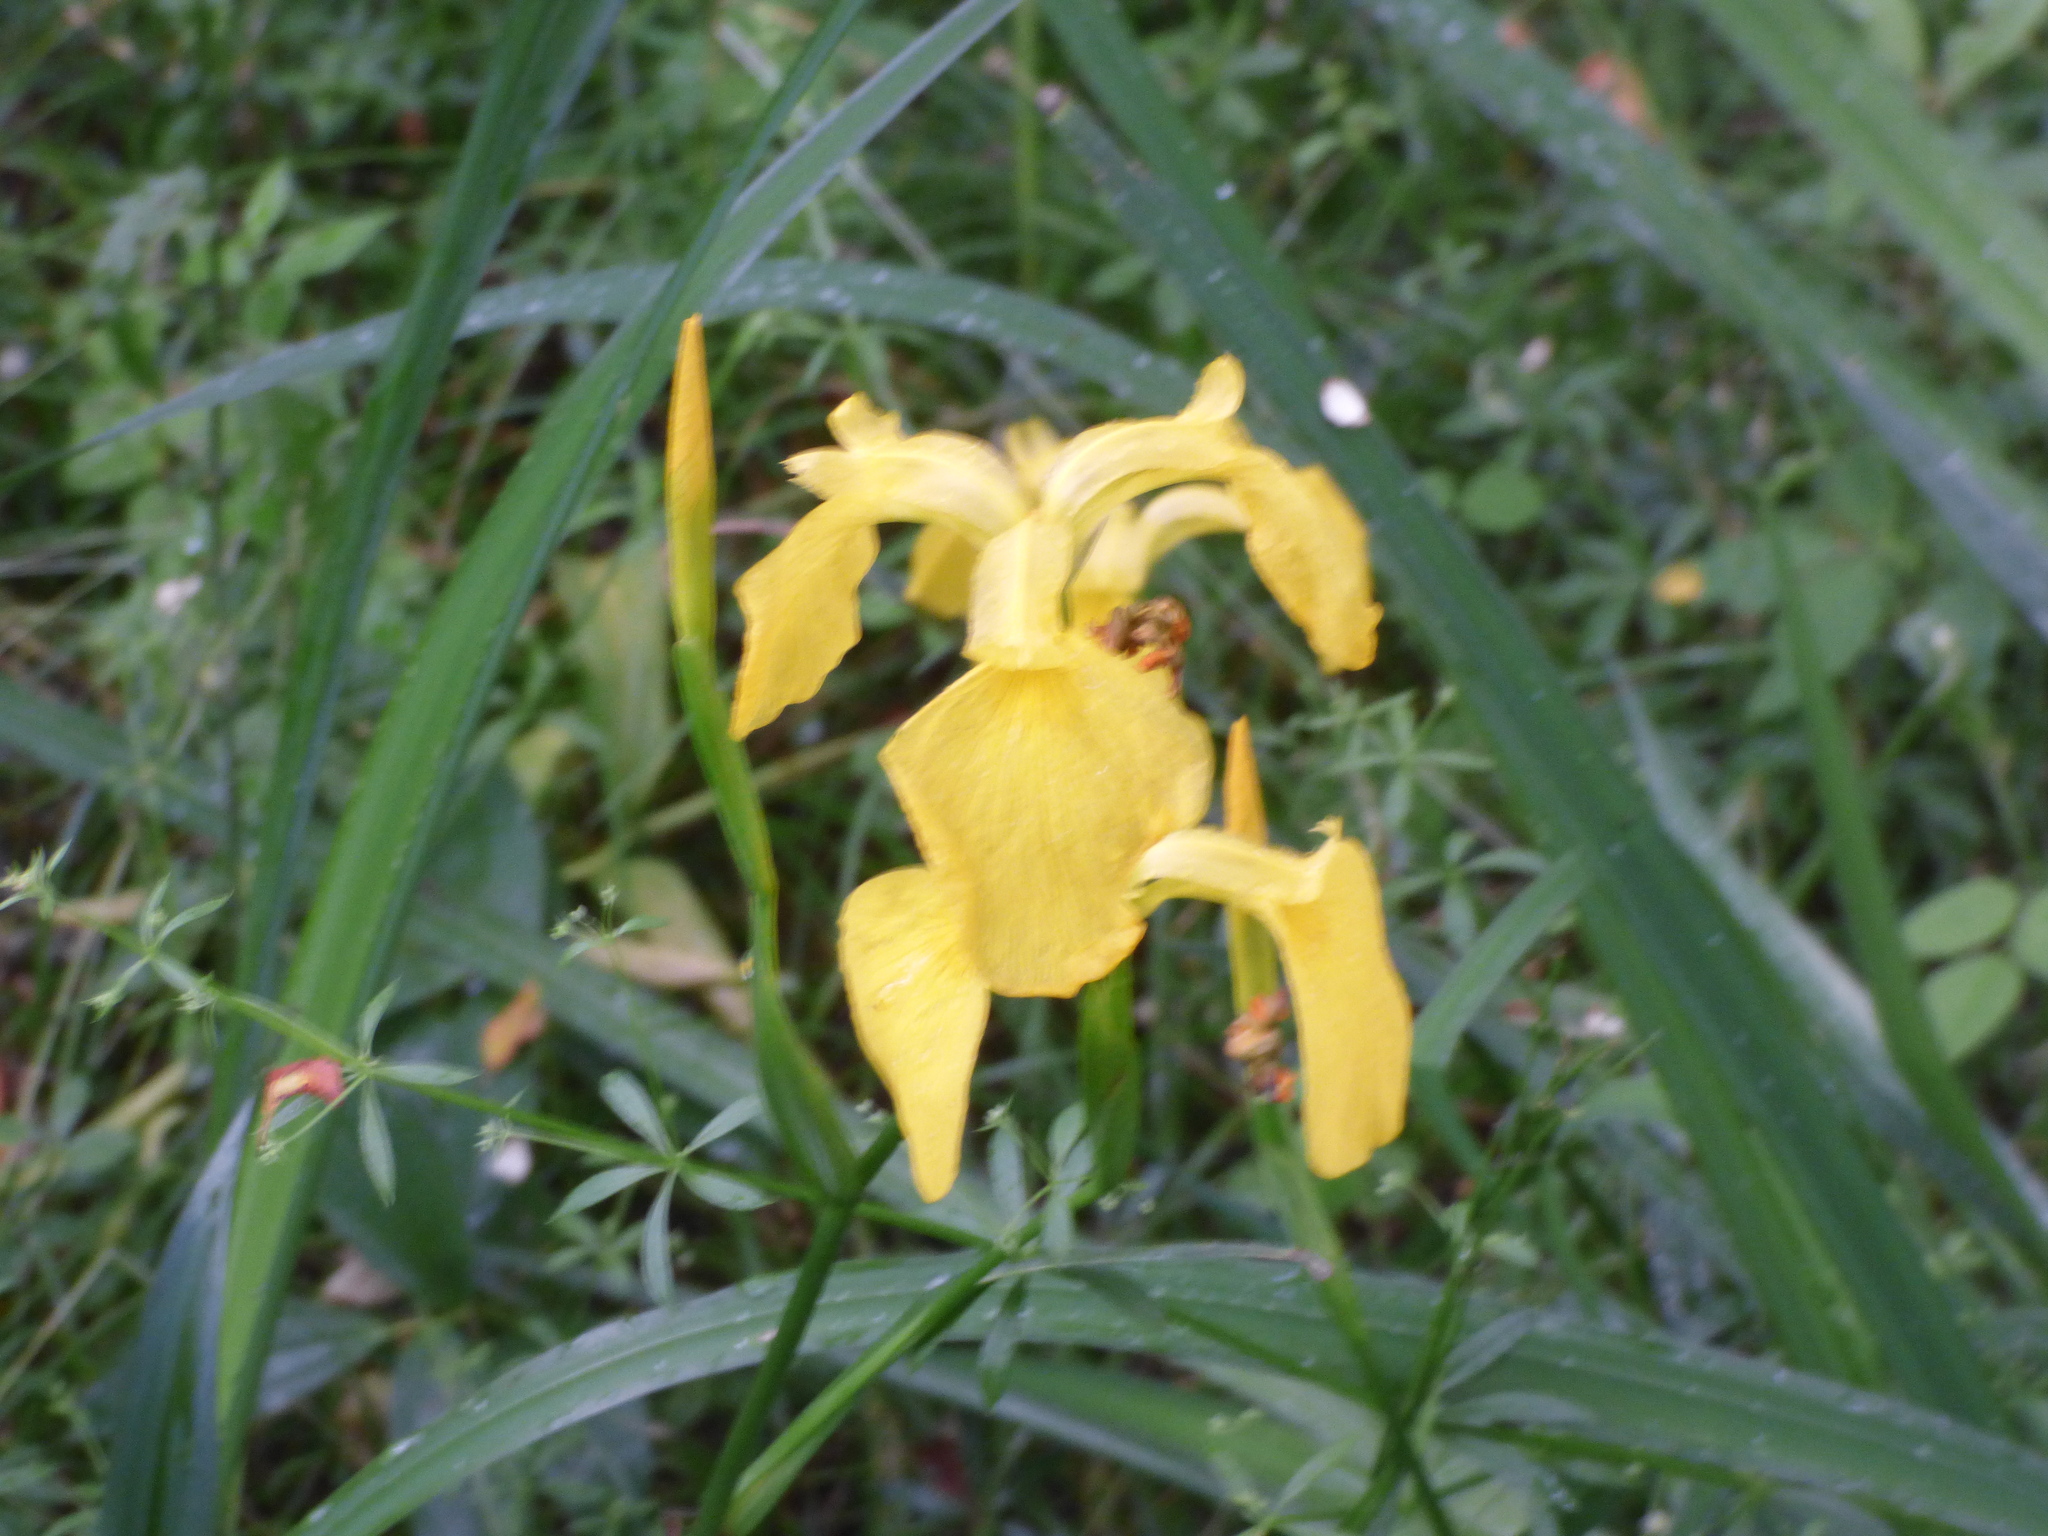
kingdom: Plantae
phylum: Tracheophyta
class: Liliopsida
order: Asparagales
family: Iridaceae
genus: Iris
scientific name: Iris pseudacorus
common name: Yellow flag
